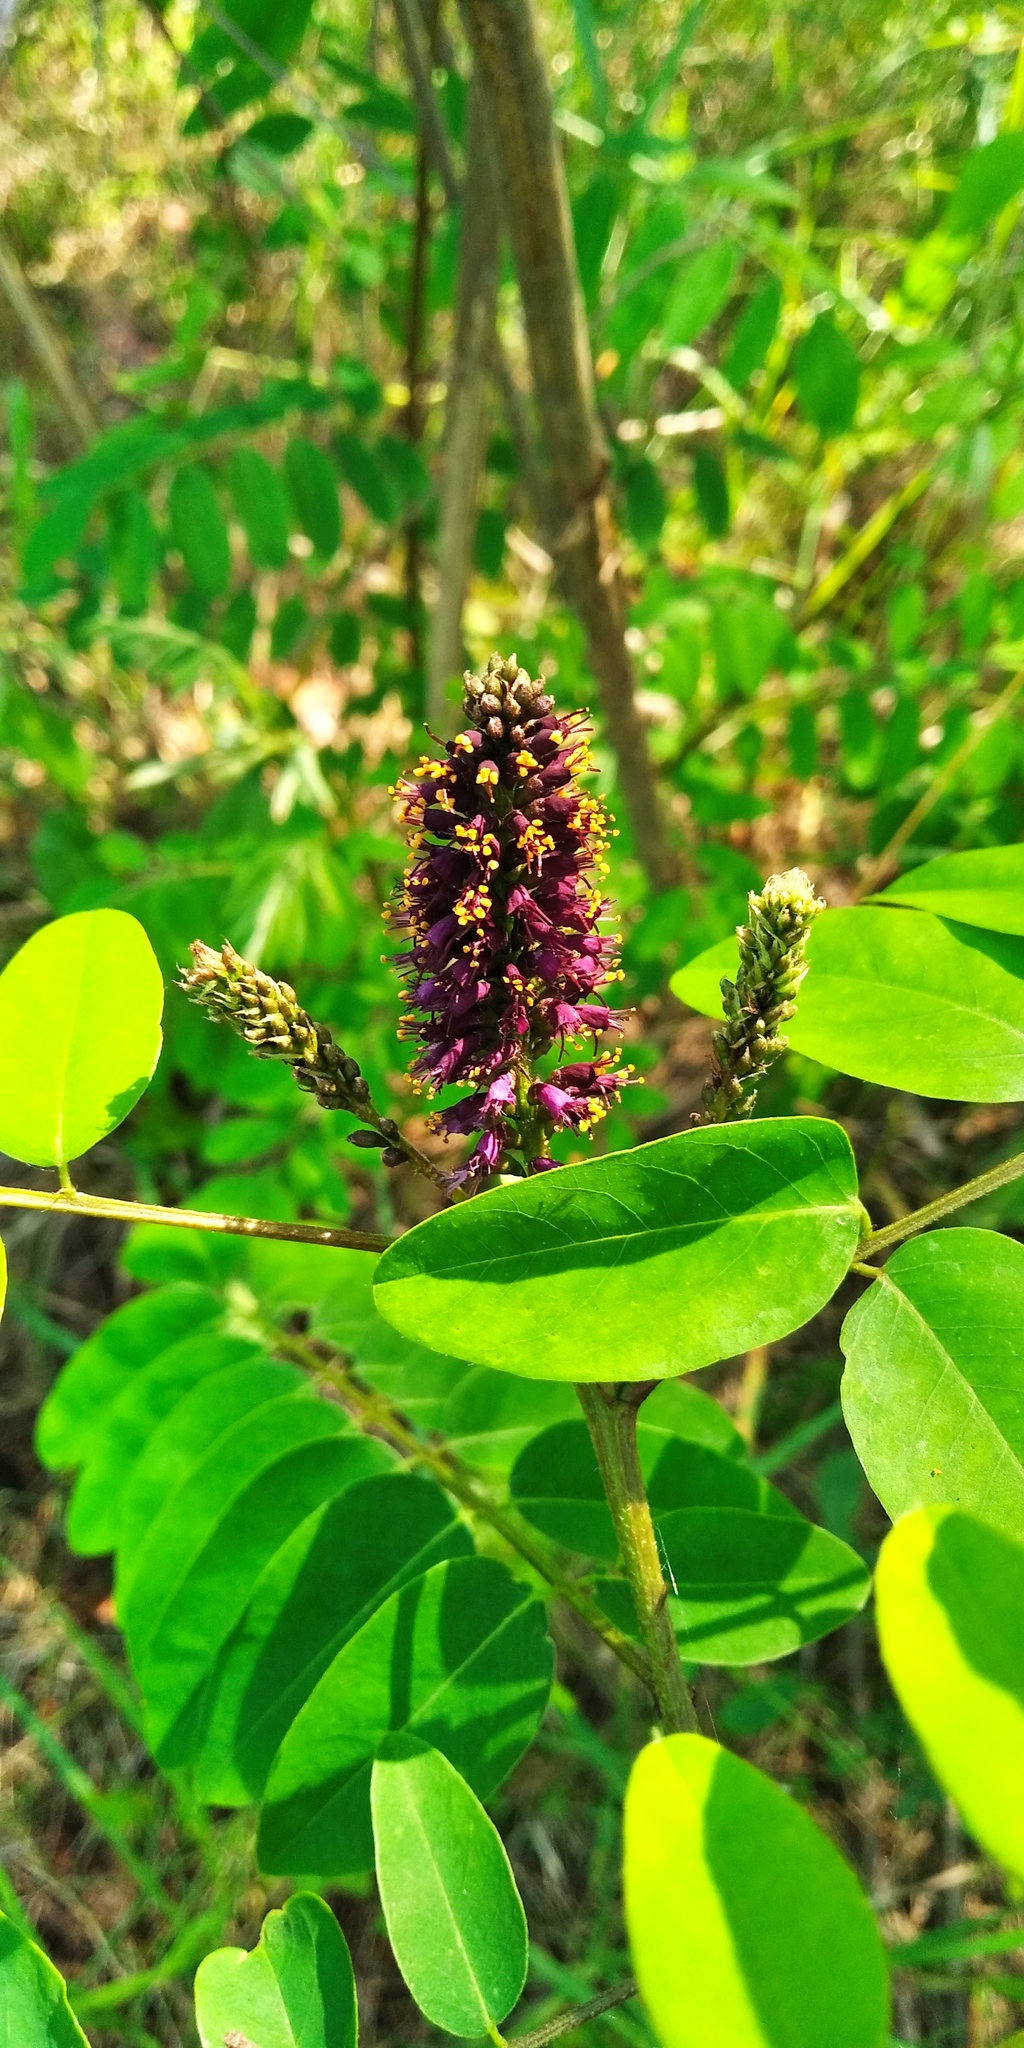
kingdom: Plantae
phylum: Tracheophyta
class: Magnoliopsida
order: Fabales
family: Fabaceae
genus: Amorpha
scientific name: Amorpha fruticosa
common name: False indigo
